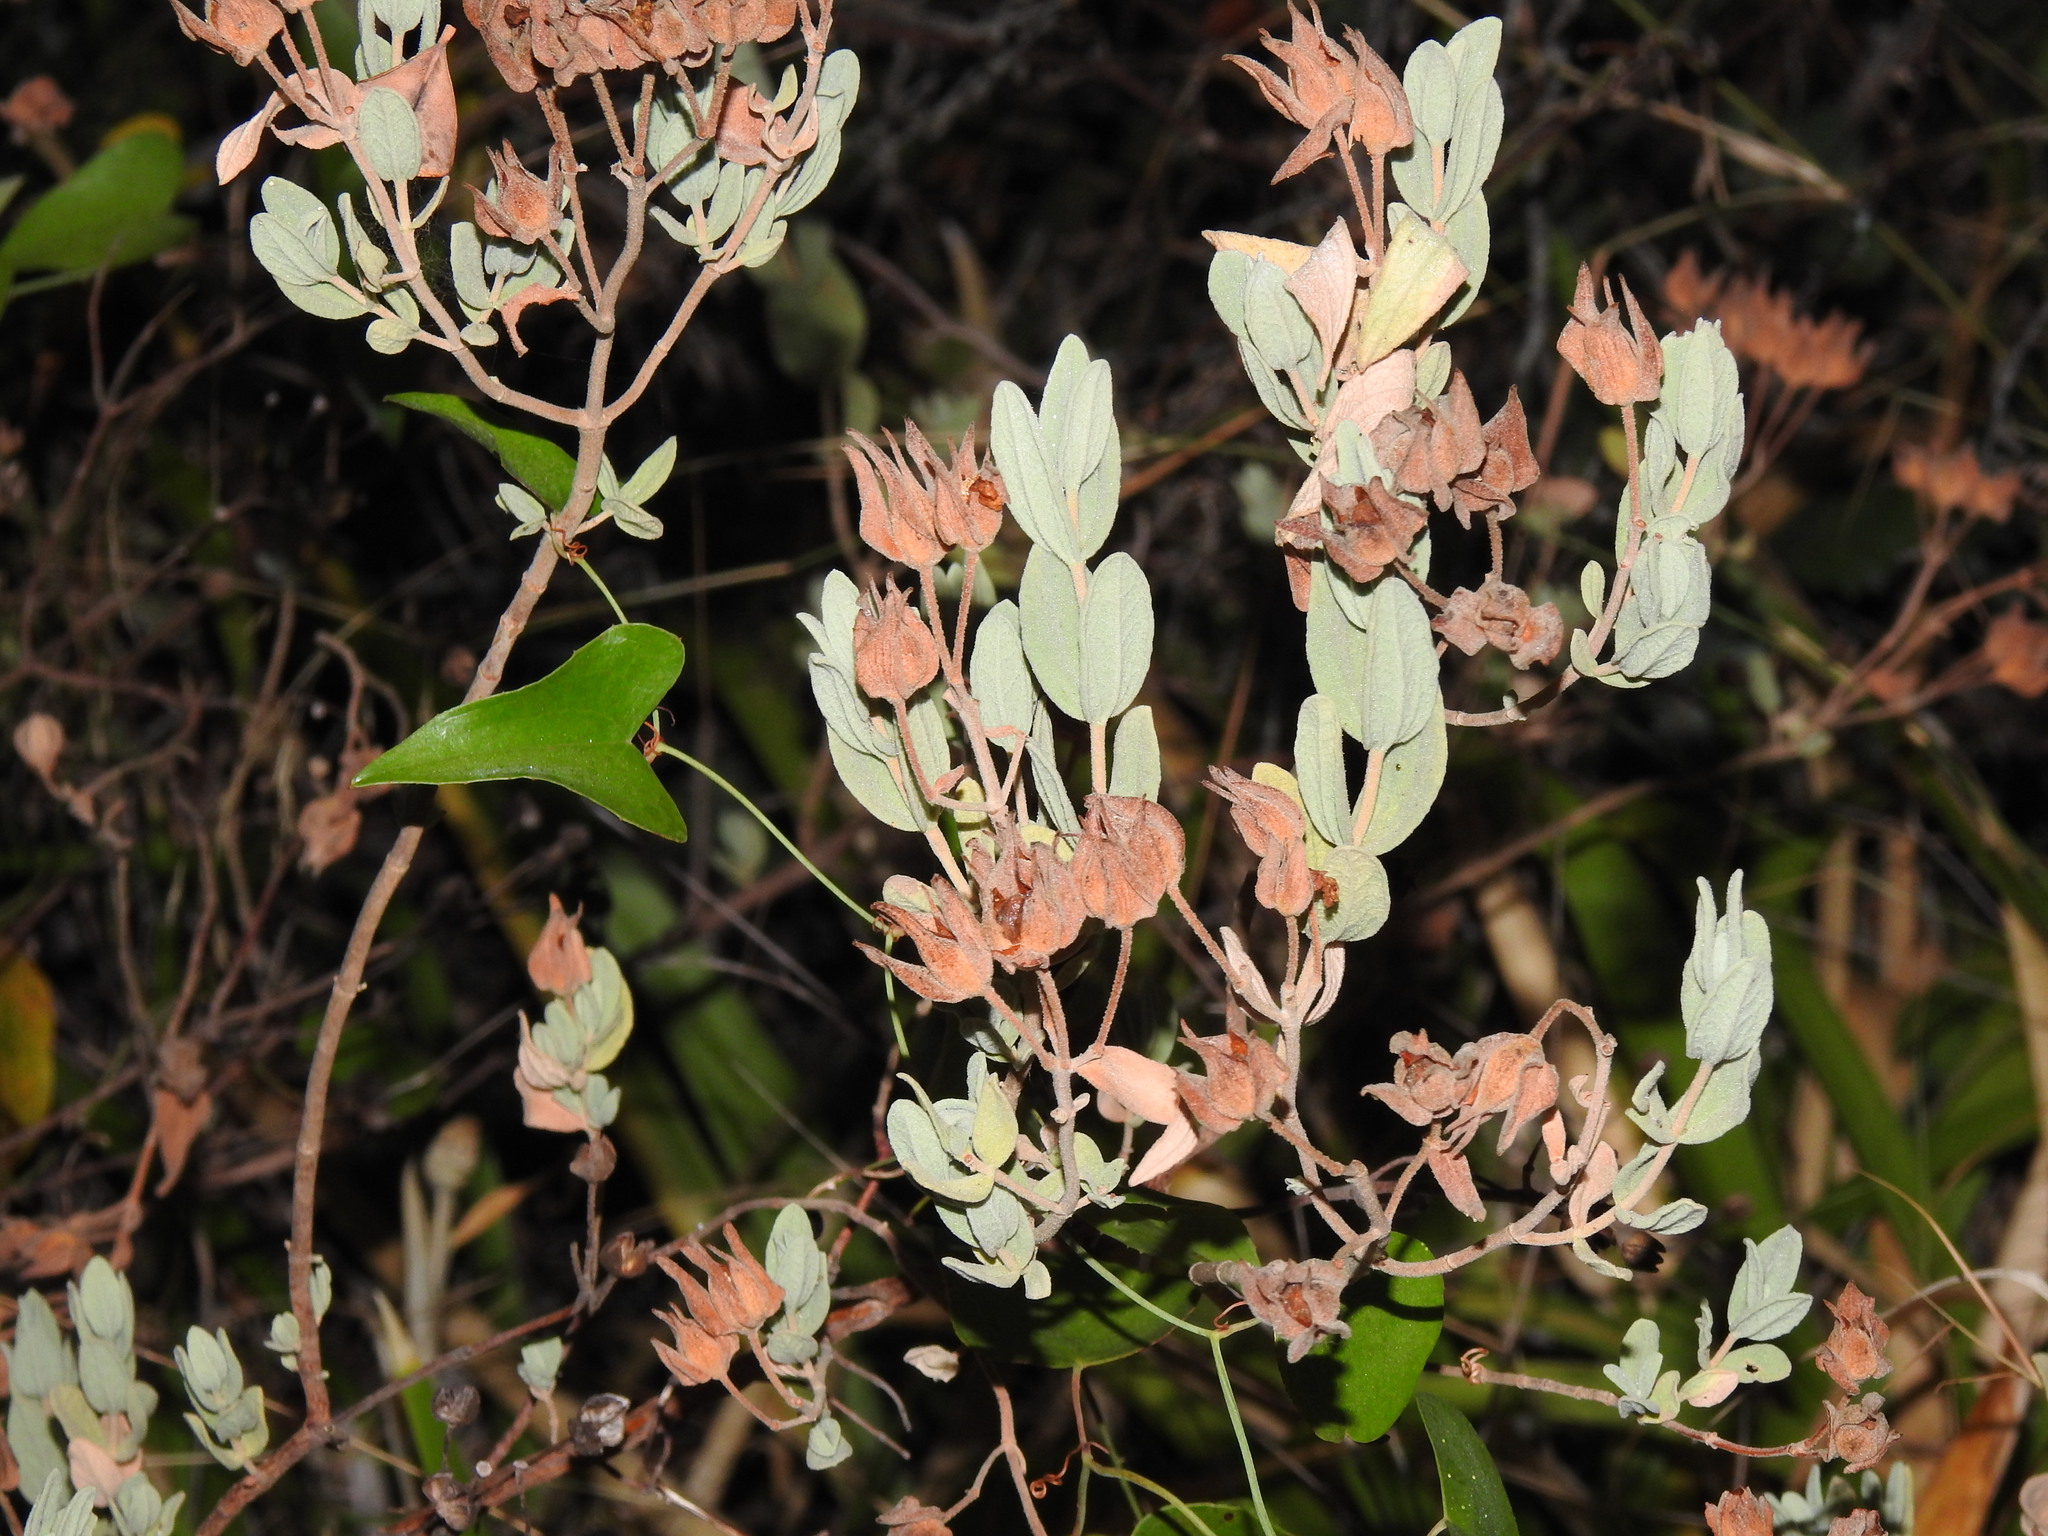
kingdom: Plantae
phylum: Tracheophyta
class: Magnoliopsida
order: Malvales
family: Cistaceae
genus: Cistus
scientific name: Cistus albidus
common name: White-leaf rock-rose
